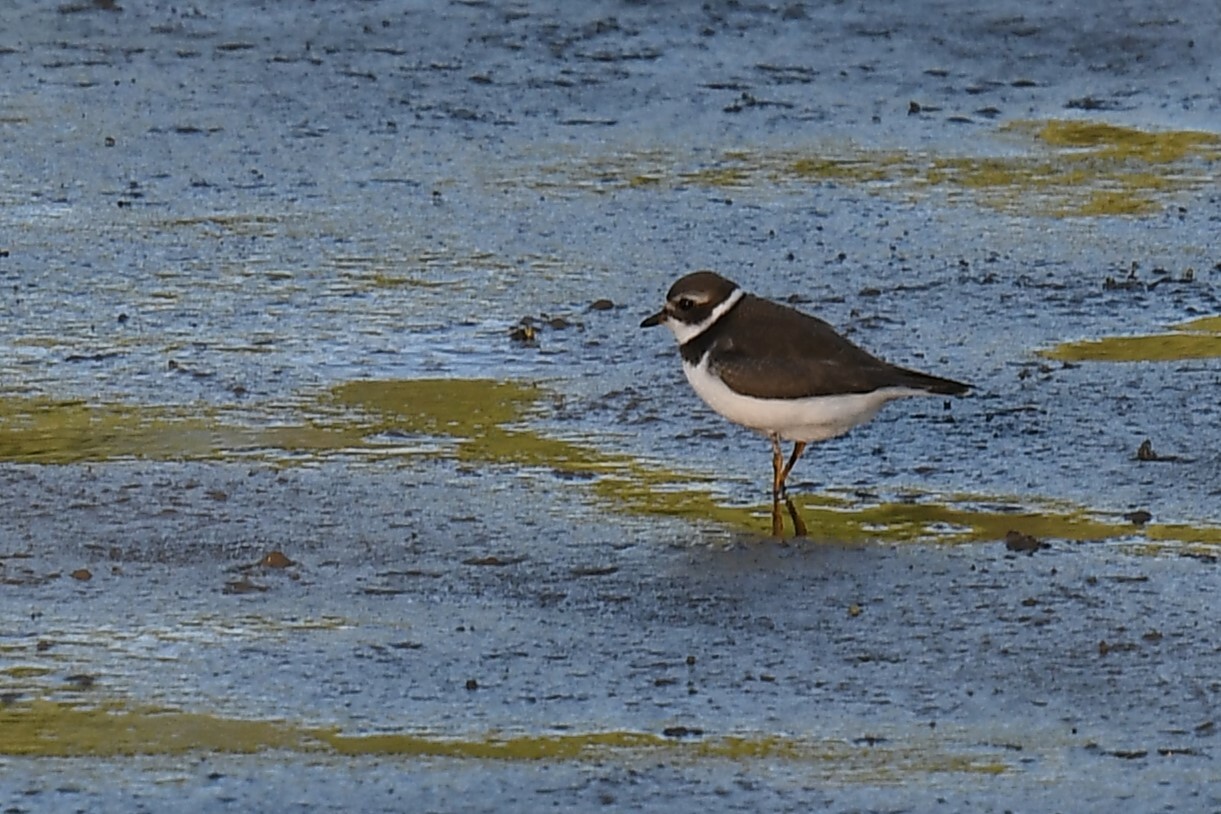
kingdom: Animalia
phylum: Chordata
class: Aves
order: Charadriiformes
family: Charadriidae
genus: Charadrius
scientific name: Charadrius semipalmatus
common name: Semipalmated plover
